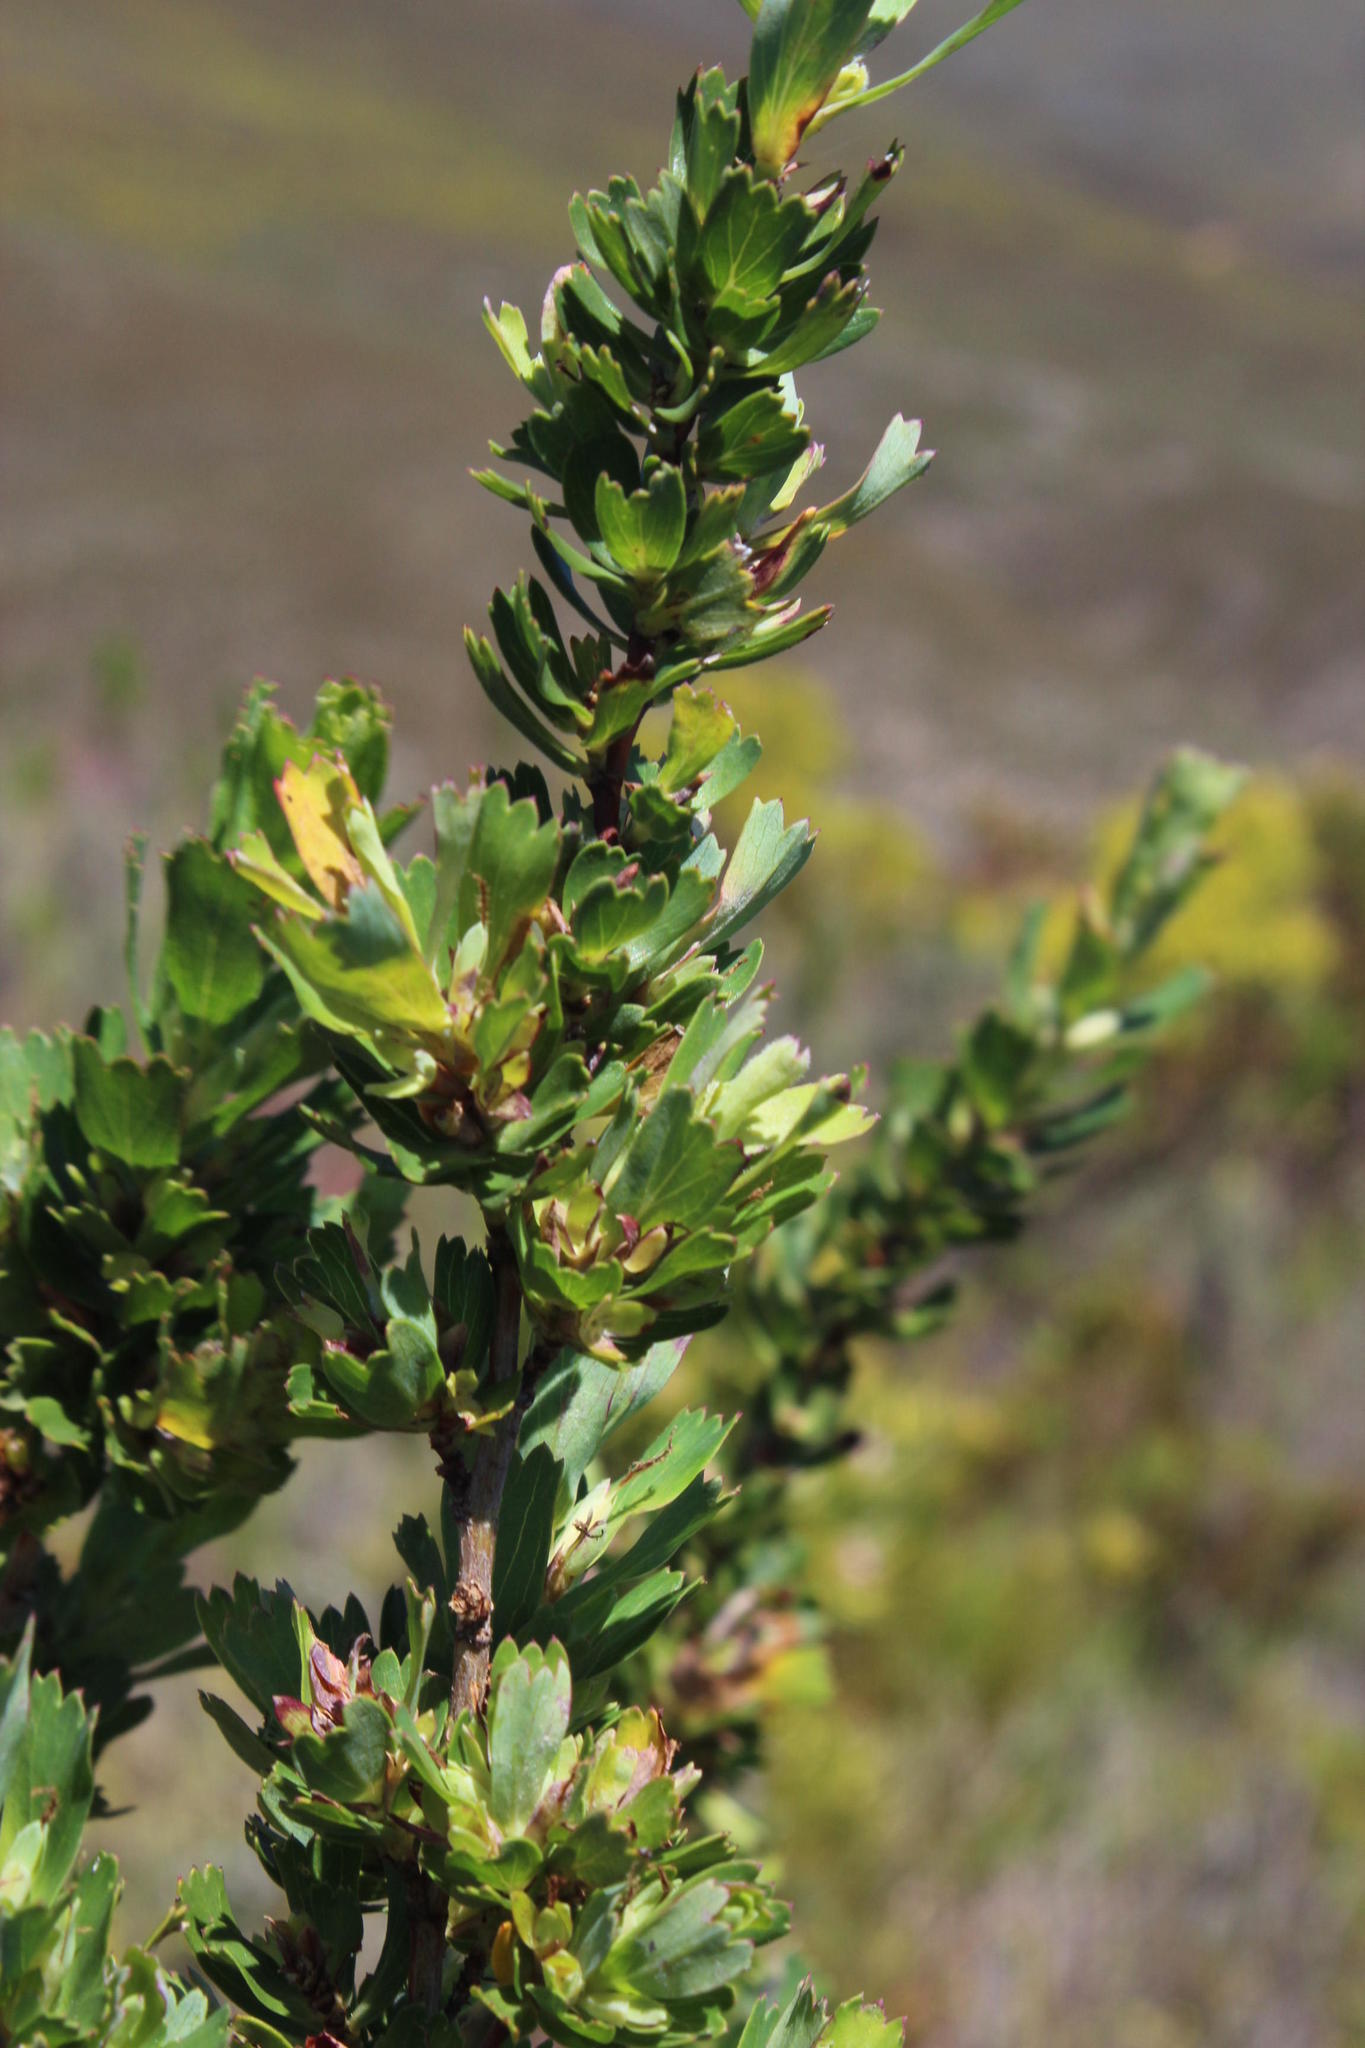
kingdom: Plantae
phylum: Tracheophyta
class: Magnoliopsida
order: Rosales
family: Rosaceae
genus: Cliffortia
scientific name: Cliffortia cuneata
